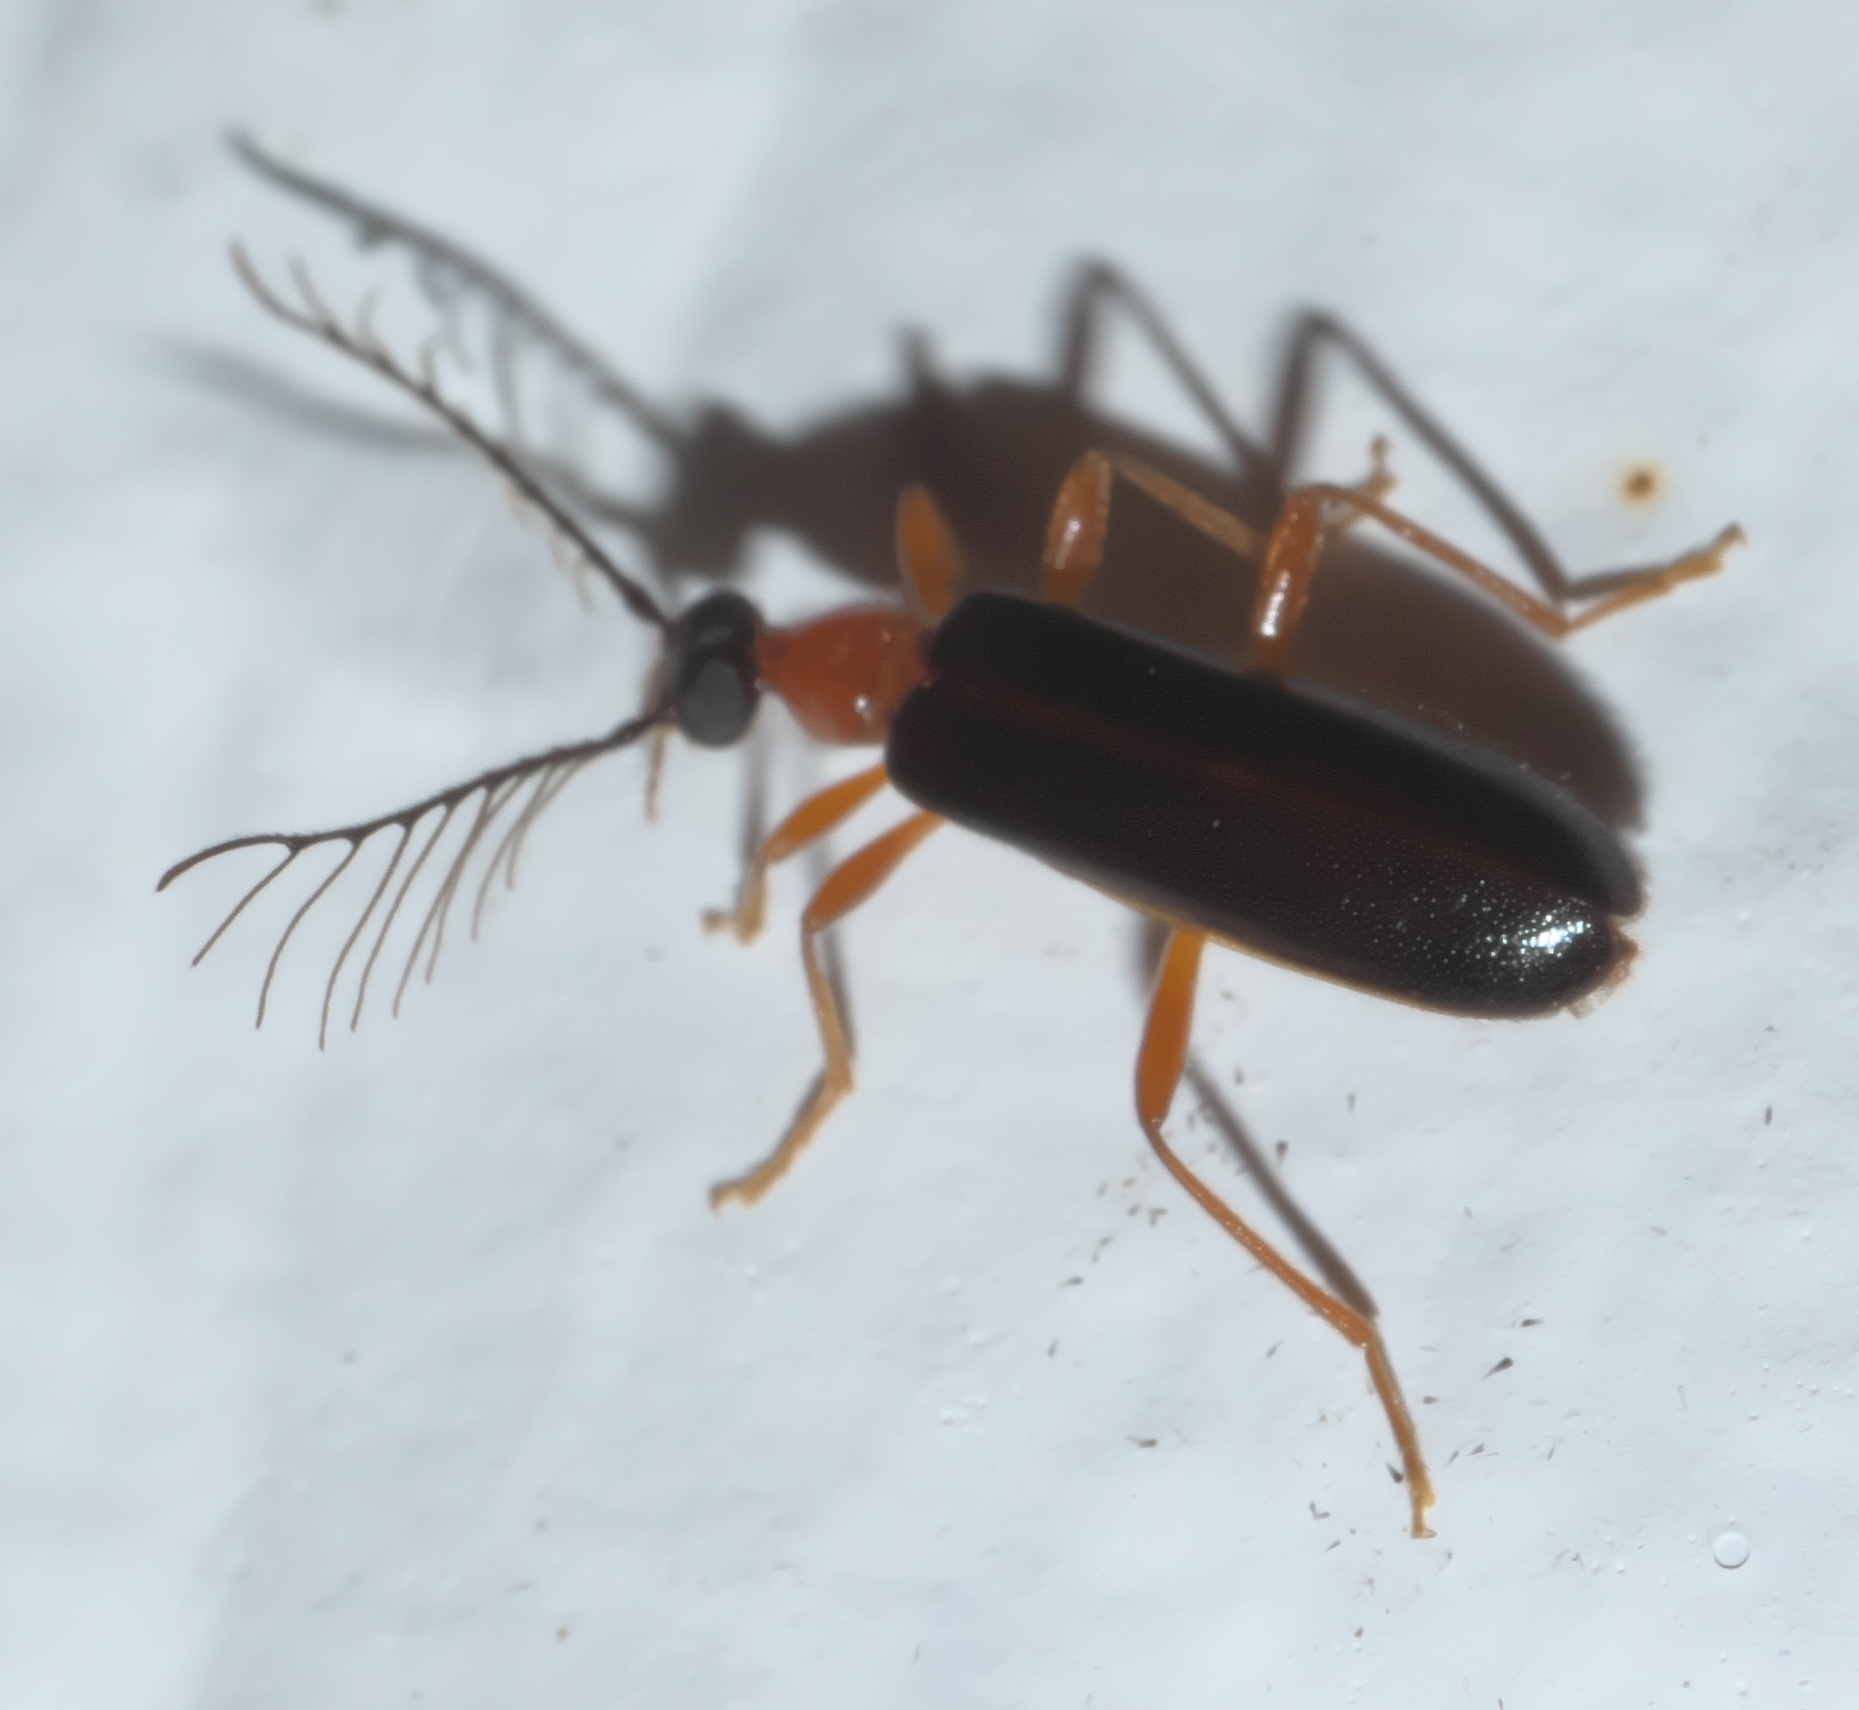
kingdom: Animalia
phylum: Arthropoda
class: Insecta
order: Coleoptera
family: Pyrochroidae
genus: Dendroides
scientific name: Dendroides canadensis
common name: Canada fire-colored beetle
